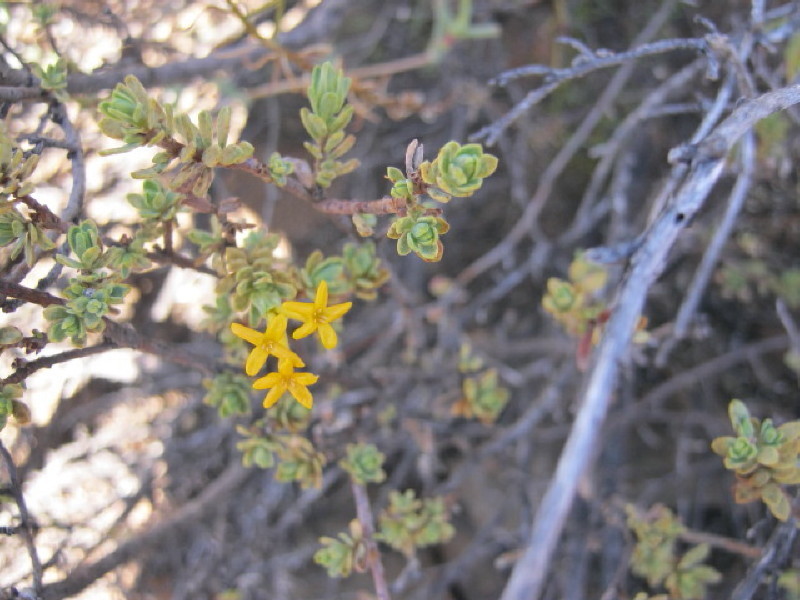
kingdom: Plantae
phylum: Tracheophyta
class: Magnoliopsida
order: Malvales
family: Thymelaeaceae
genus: Gnidia
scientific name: Gnidia deserticola
